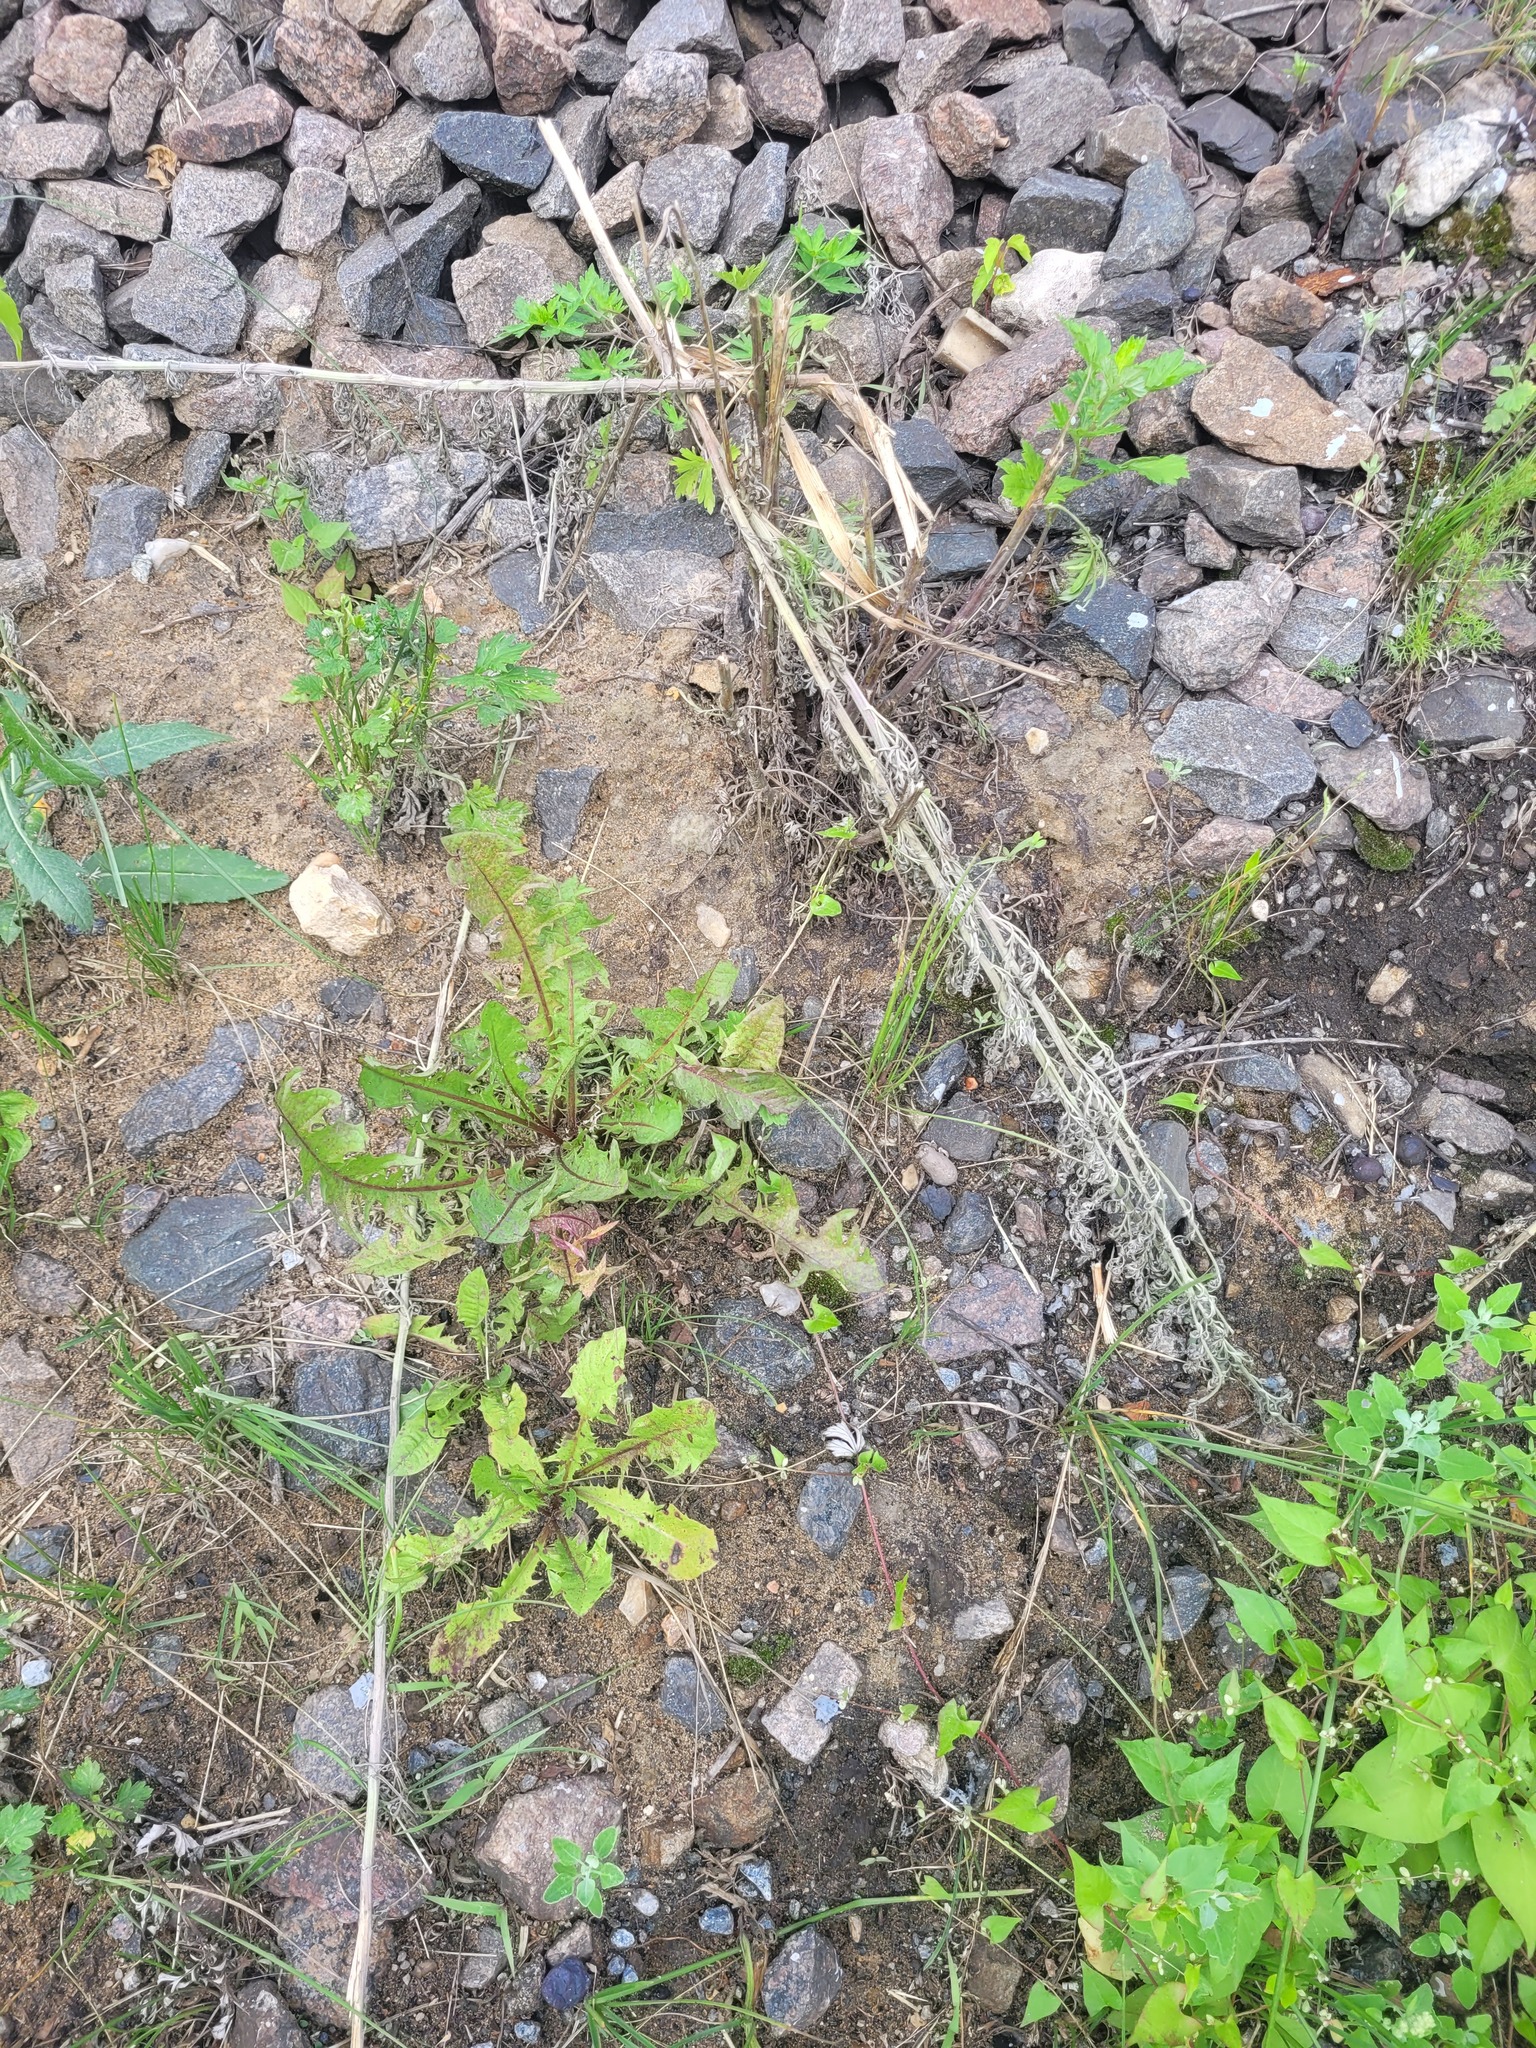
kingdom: Plantae
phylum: Tracheophyta
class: Magnoliopsida
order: Asterales
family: Asteraceae
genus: Taraxacum
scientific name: Taraxacum officinale
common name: Common dandelion
